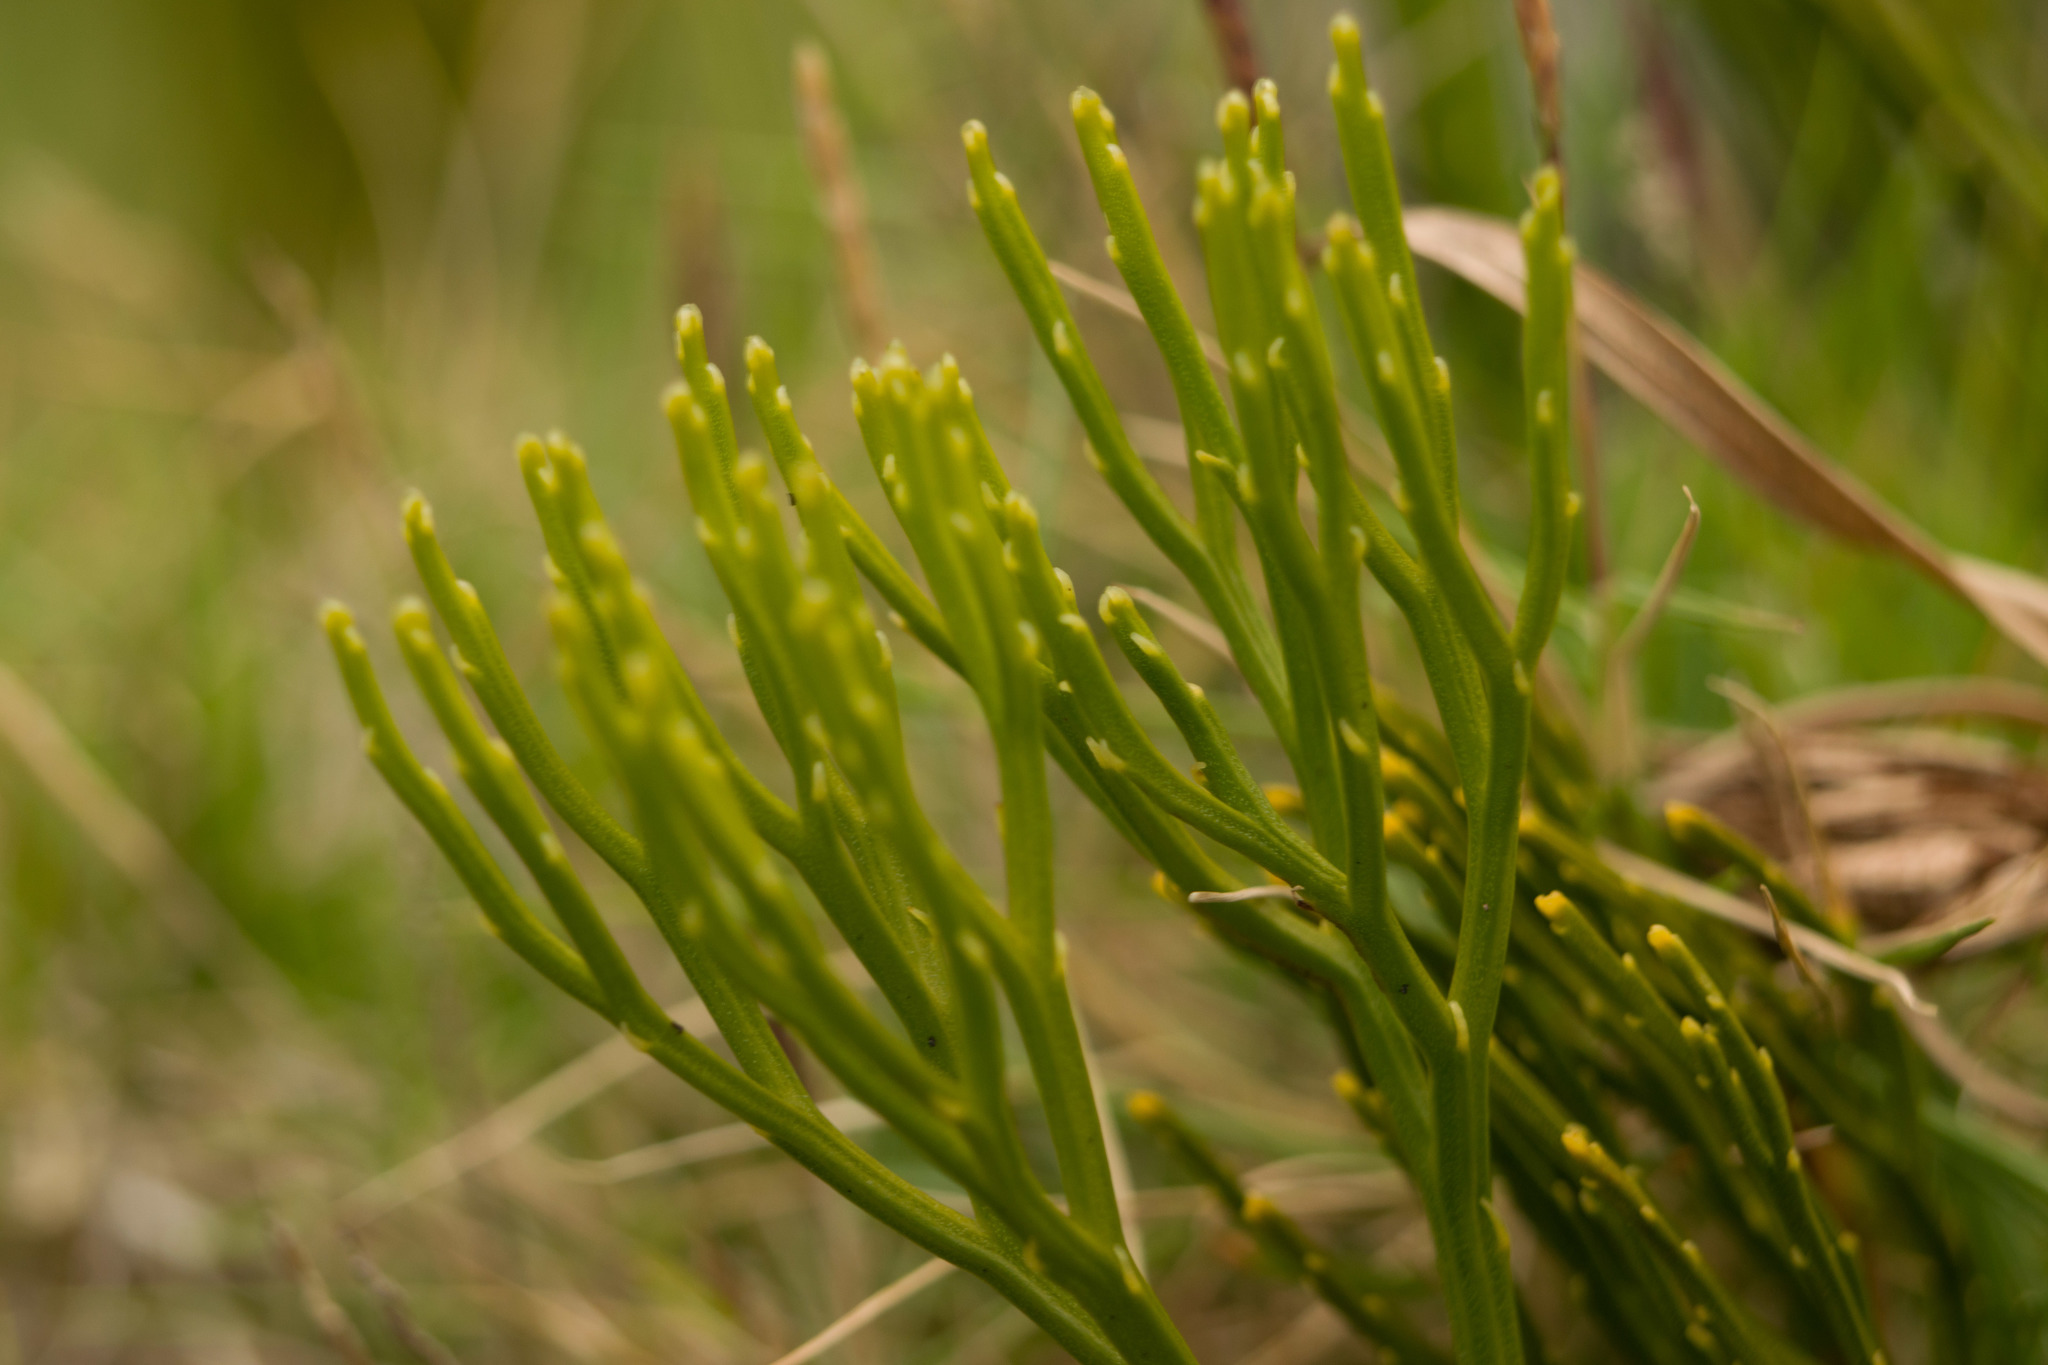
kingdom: Plantae
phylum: Tracheophyta
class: Polypodiopsida
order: Psilotales
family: Psilotaceae
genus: Psilotum
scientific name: Psilotum nudum
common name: Skeleton fork fern
